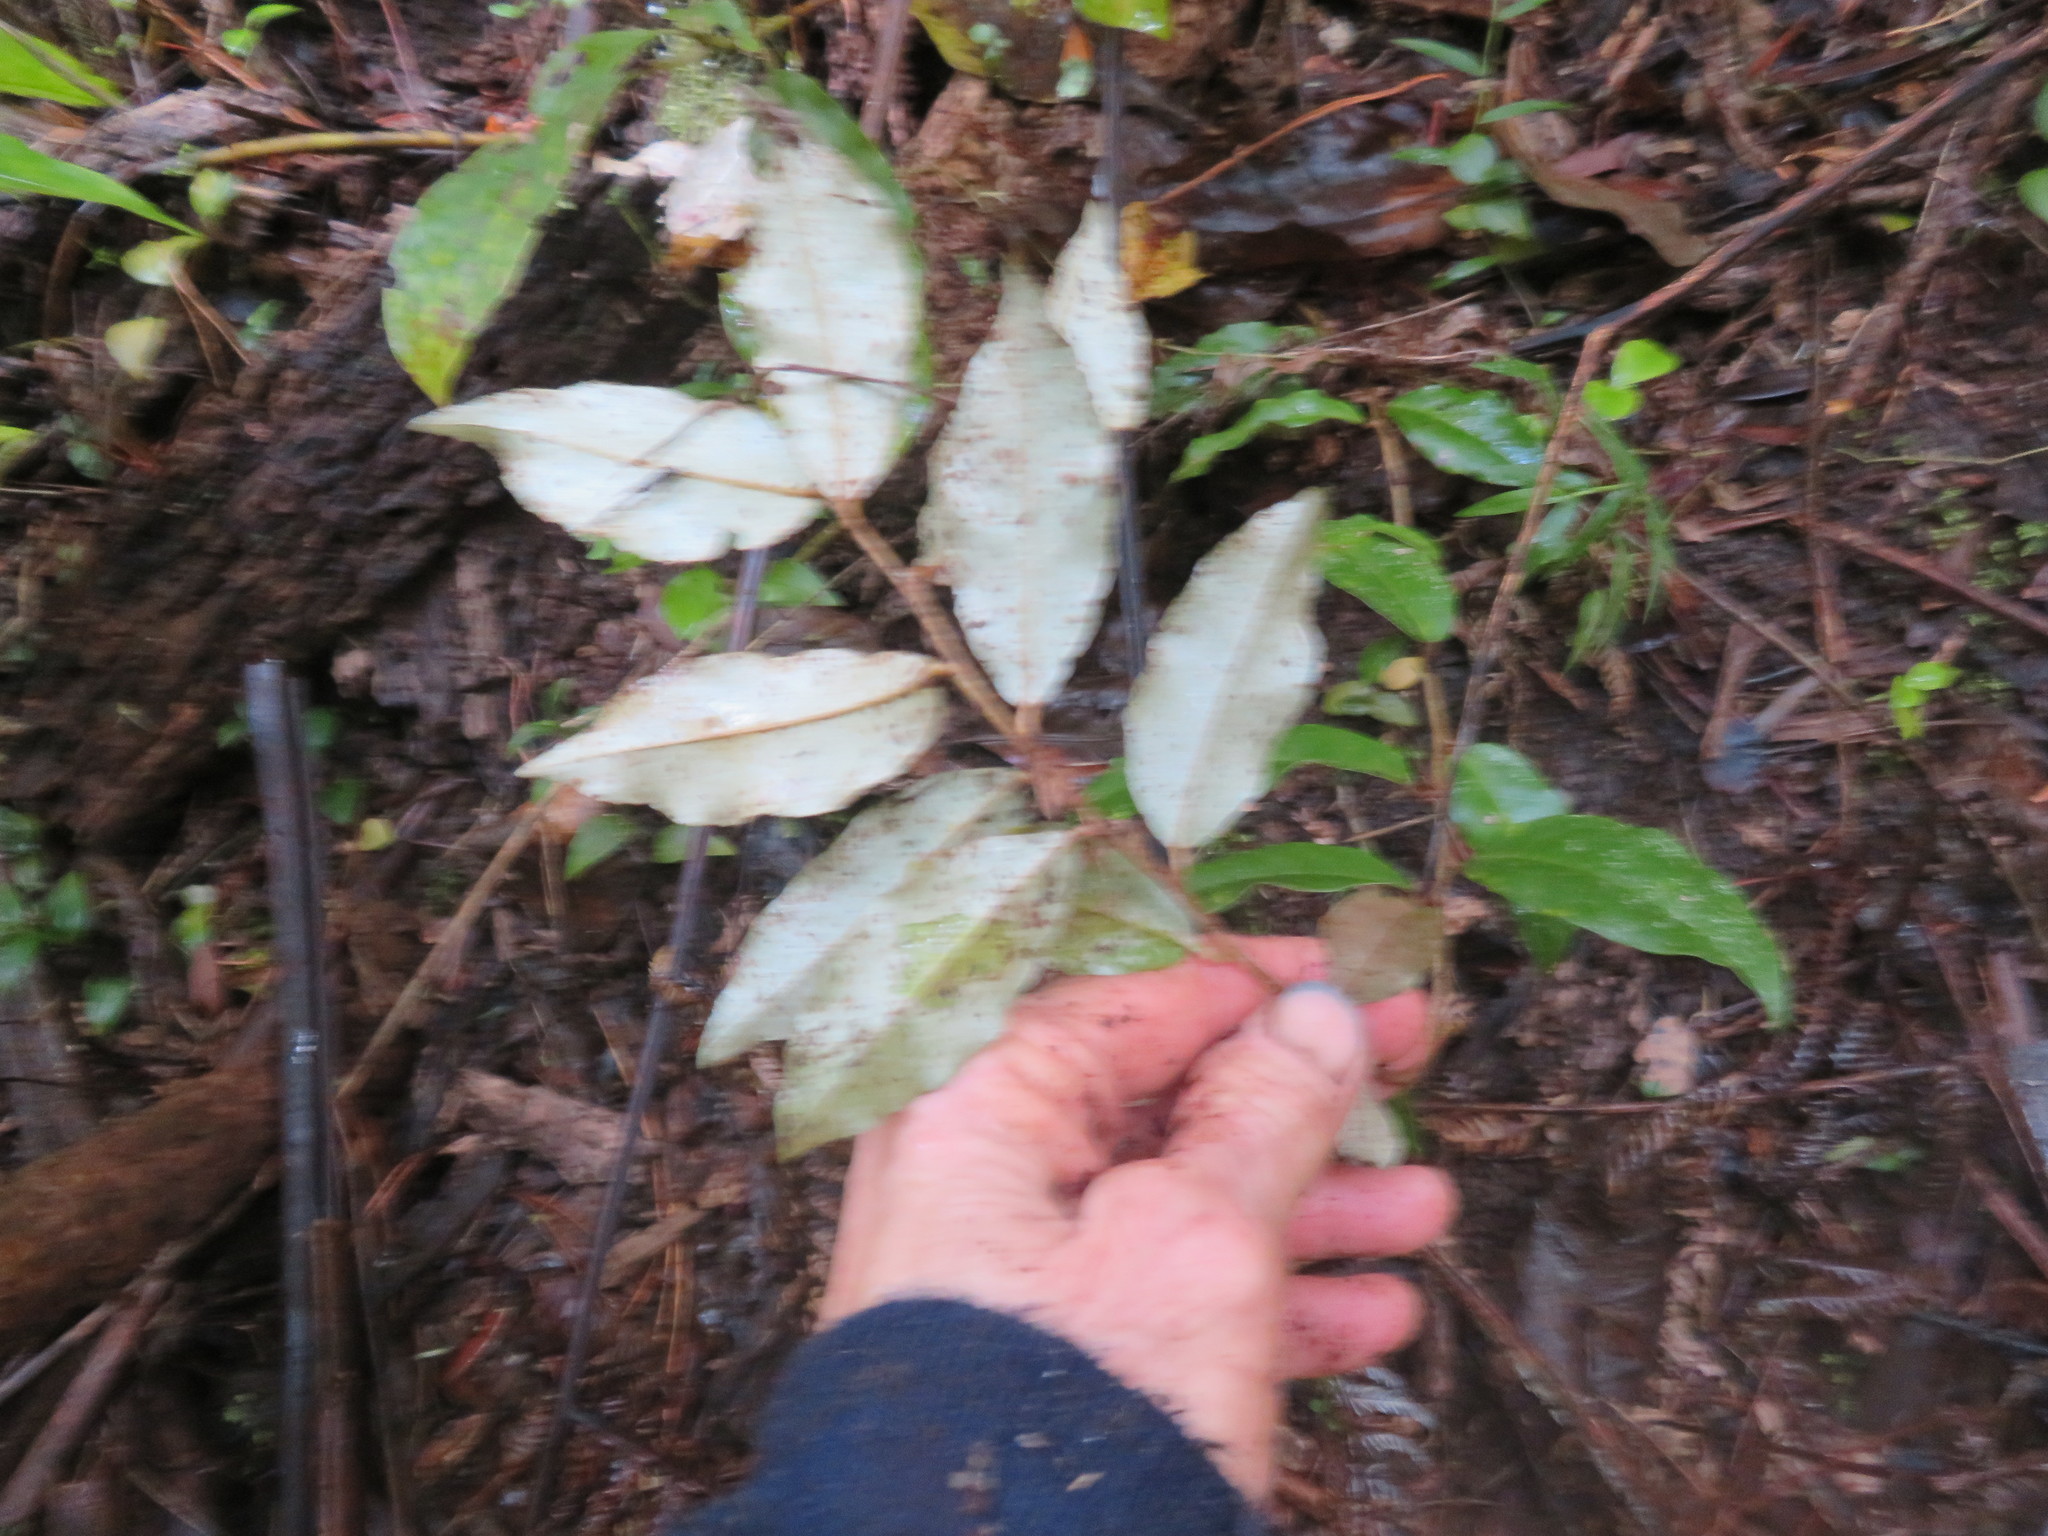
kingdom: Plantae
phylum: Tracheophyta
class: Magnoliopsida
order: Rosales
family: Elaeagnaceae
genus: Elaeagnus
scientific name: Elaeagnus reflexa
